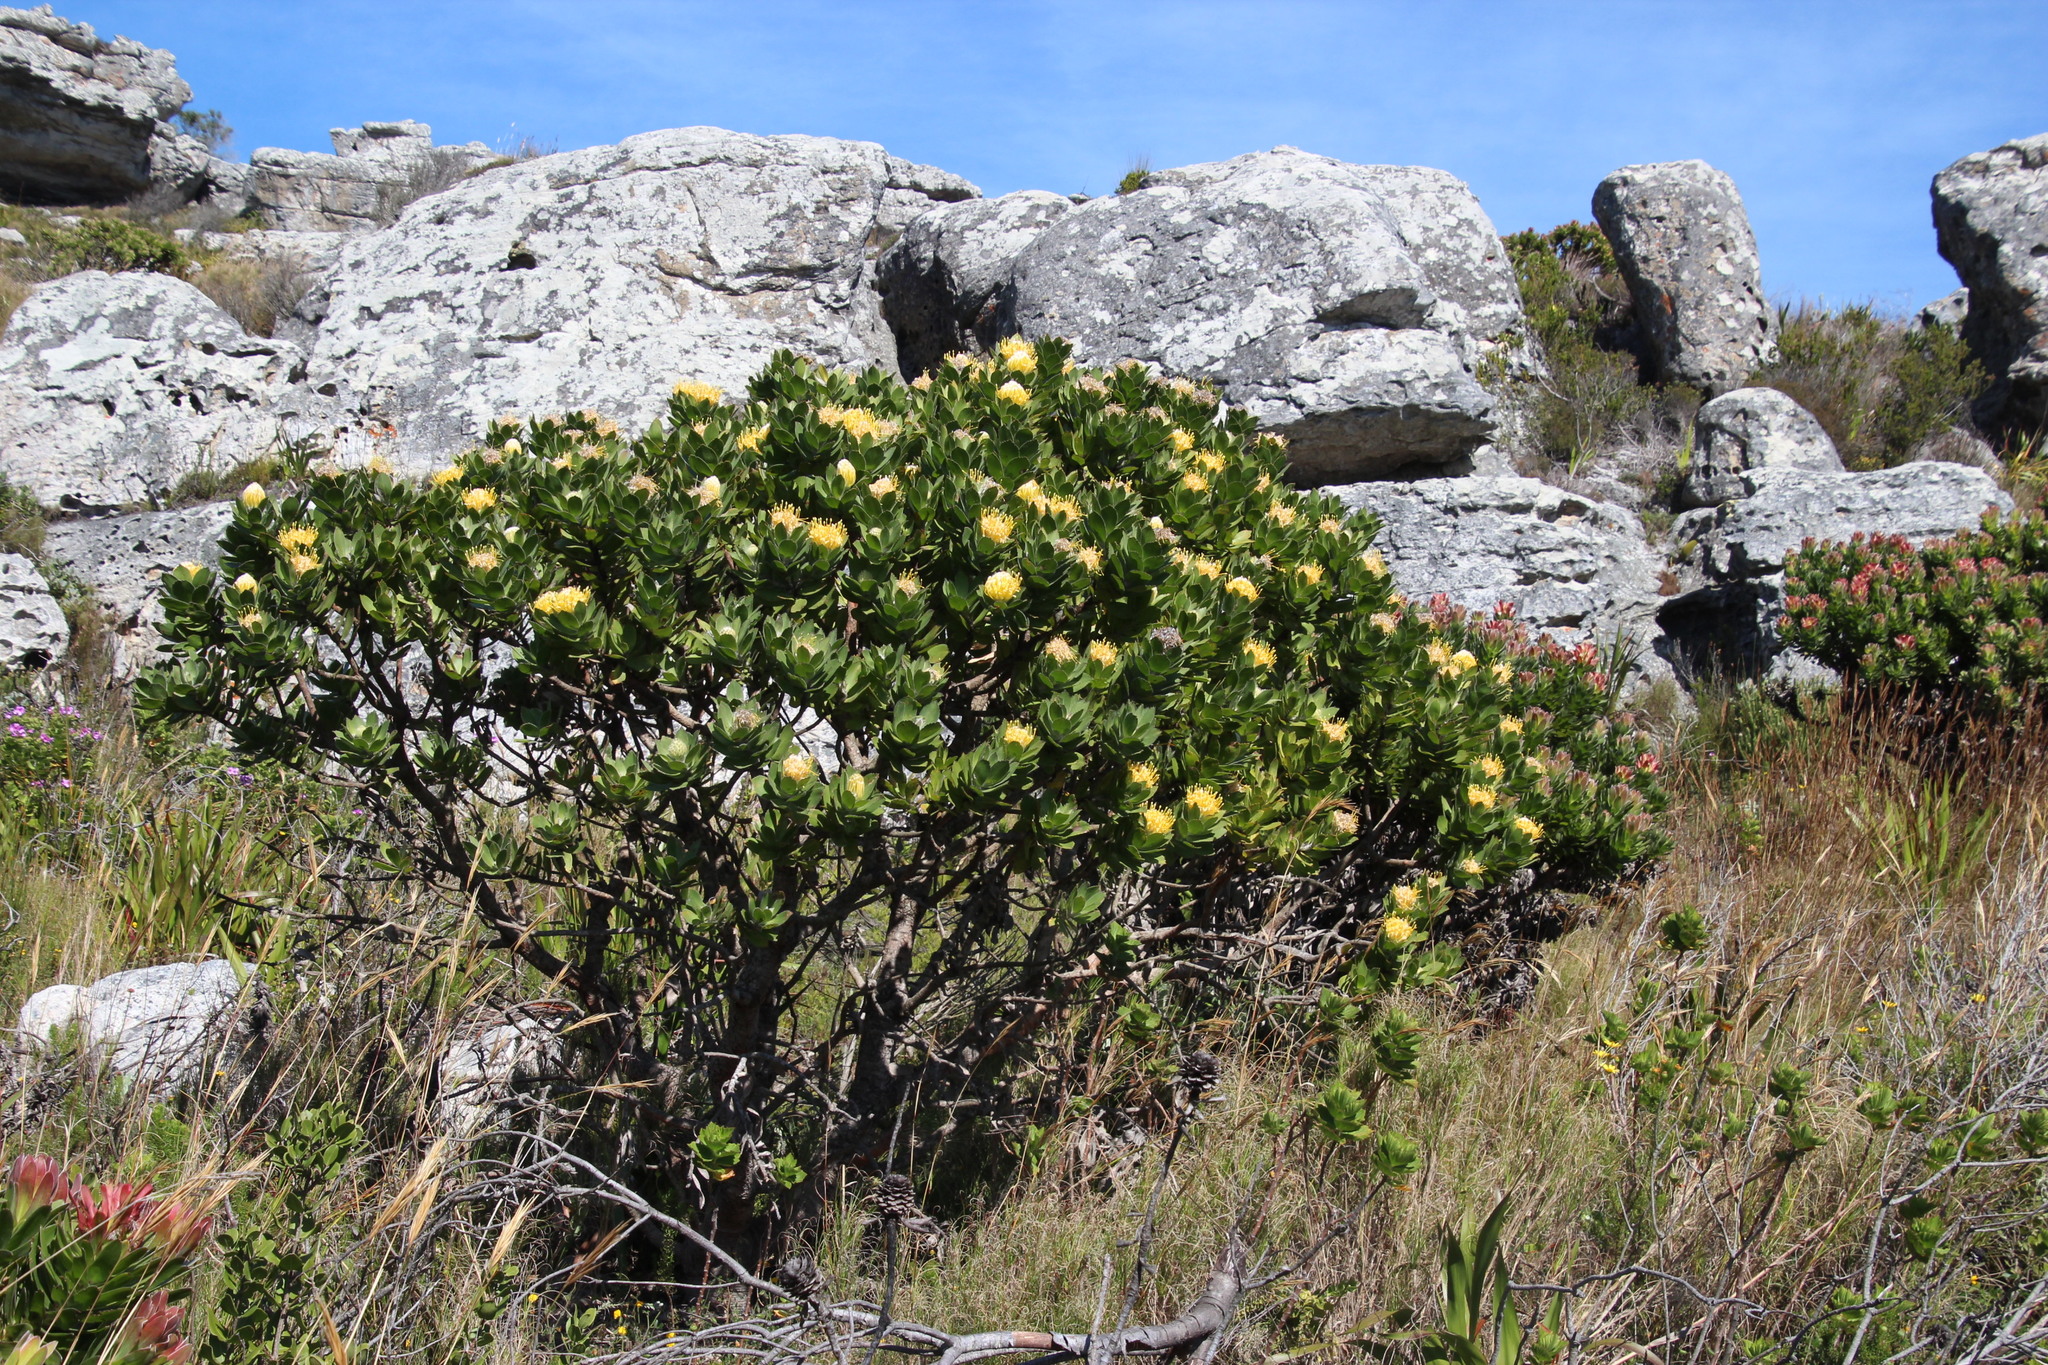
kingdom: Plantae
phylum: Tracheophyta
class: Magnoliopsida
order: Proteales
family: Proteaceae
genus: Leucospermum
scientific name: Leucospermum conocarpodendron
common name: Tree pincushion
